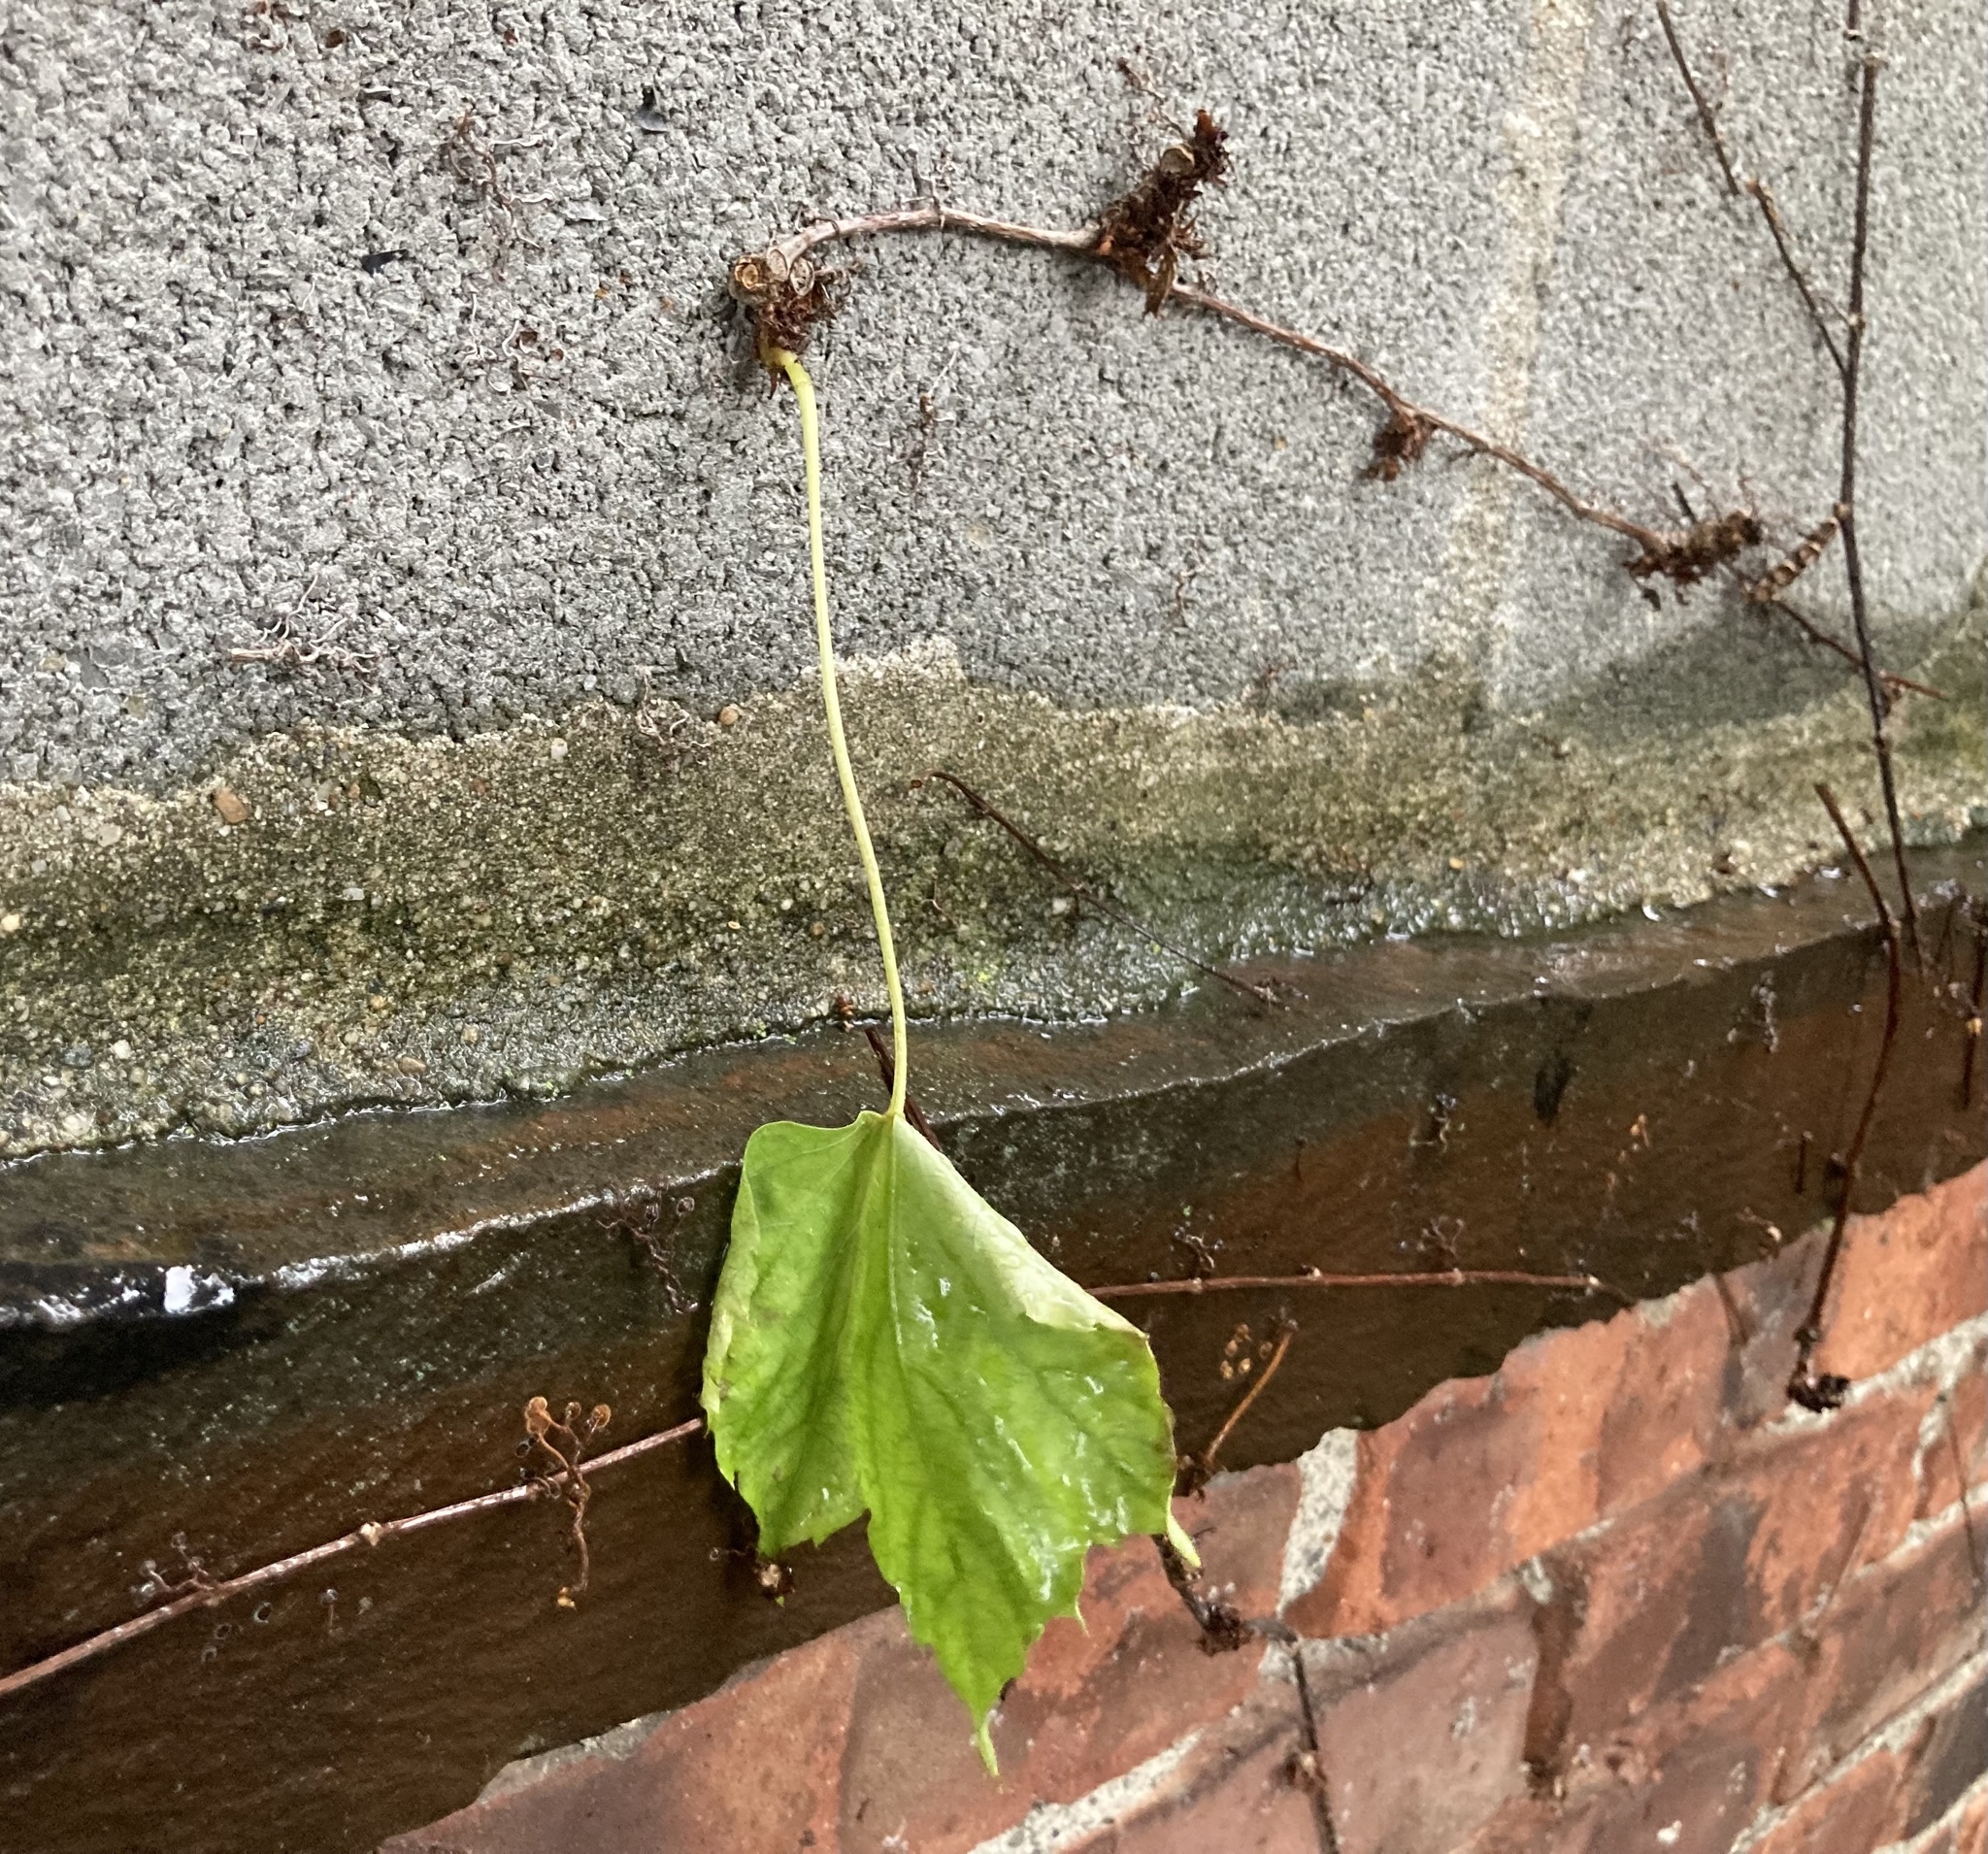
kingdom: Plantae
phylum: Tracheophyta
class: Magnoliopsida
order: Vitales
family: Vitaceae
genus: Parthenocissus
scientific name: Parthenocissus tricuspidata
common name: Boston ivy
